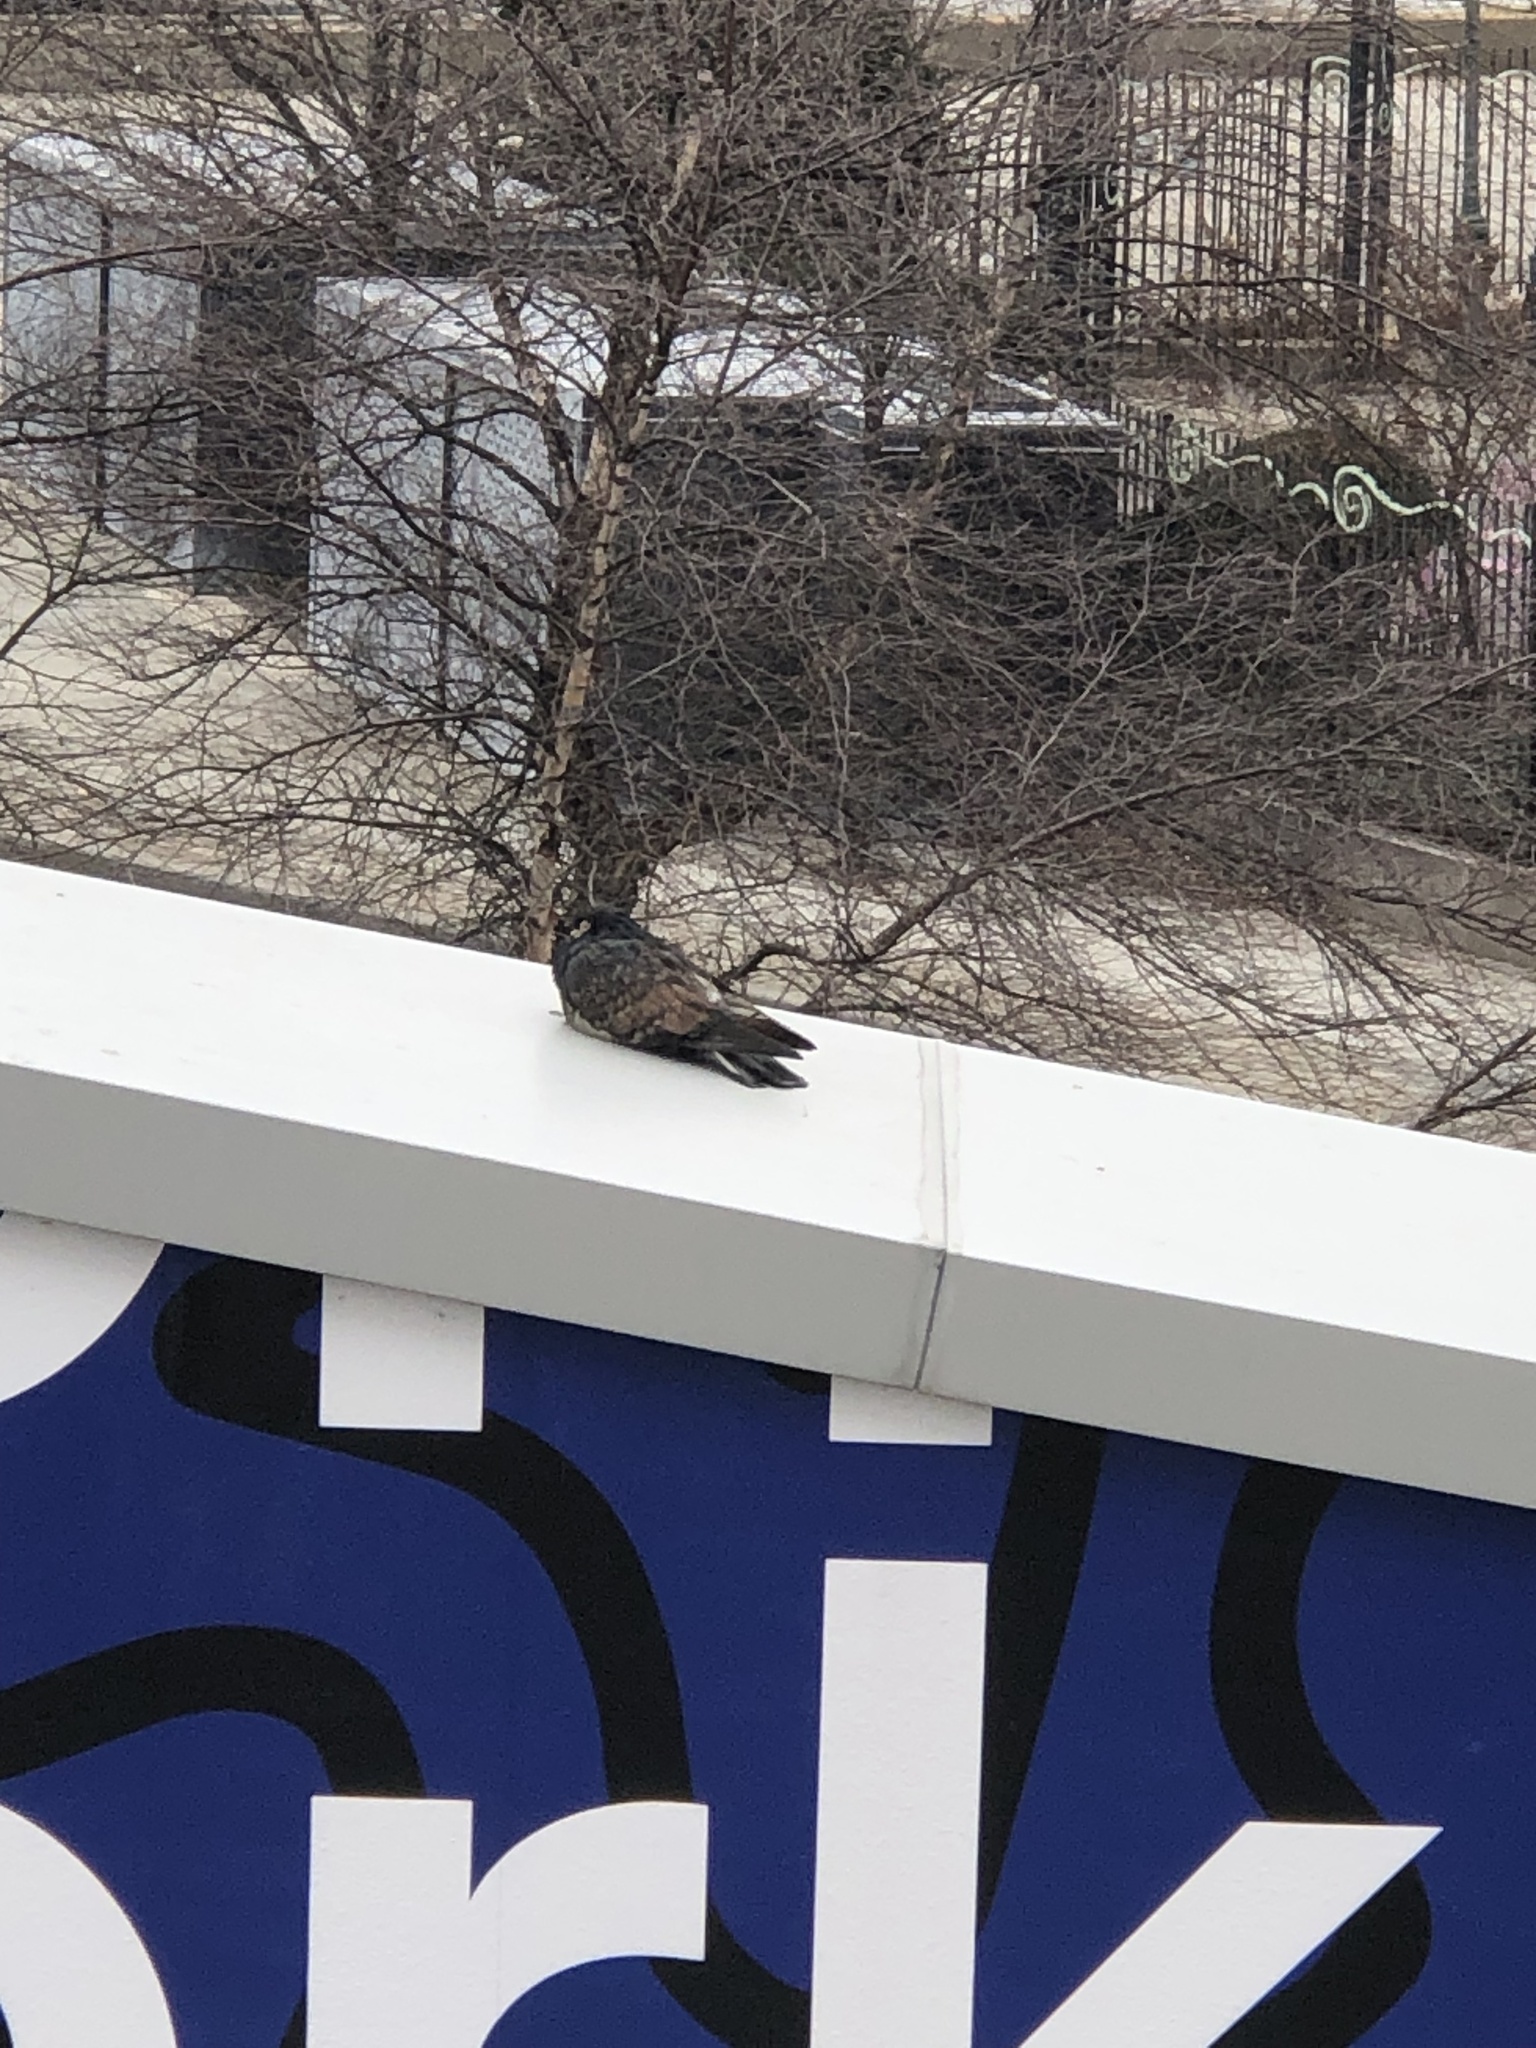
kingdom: Animalia
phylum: Chordata
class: Aves
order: Columbiformes
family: Columbidae
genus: Columba
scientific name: Columba livia
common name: Rock pigeon
